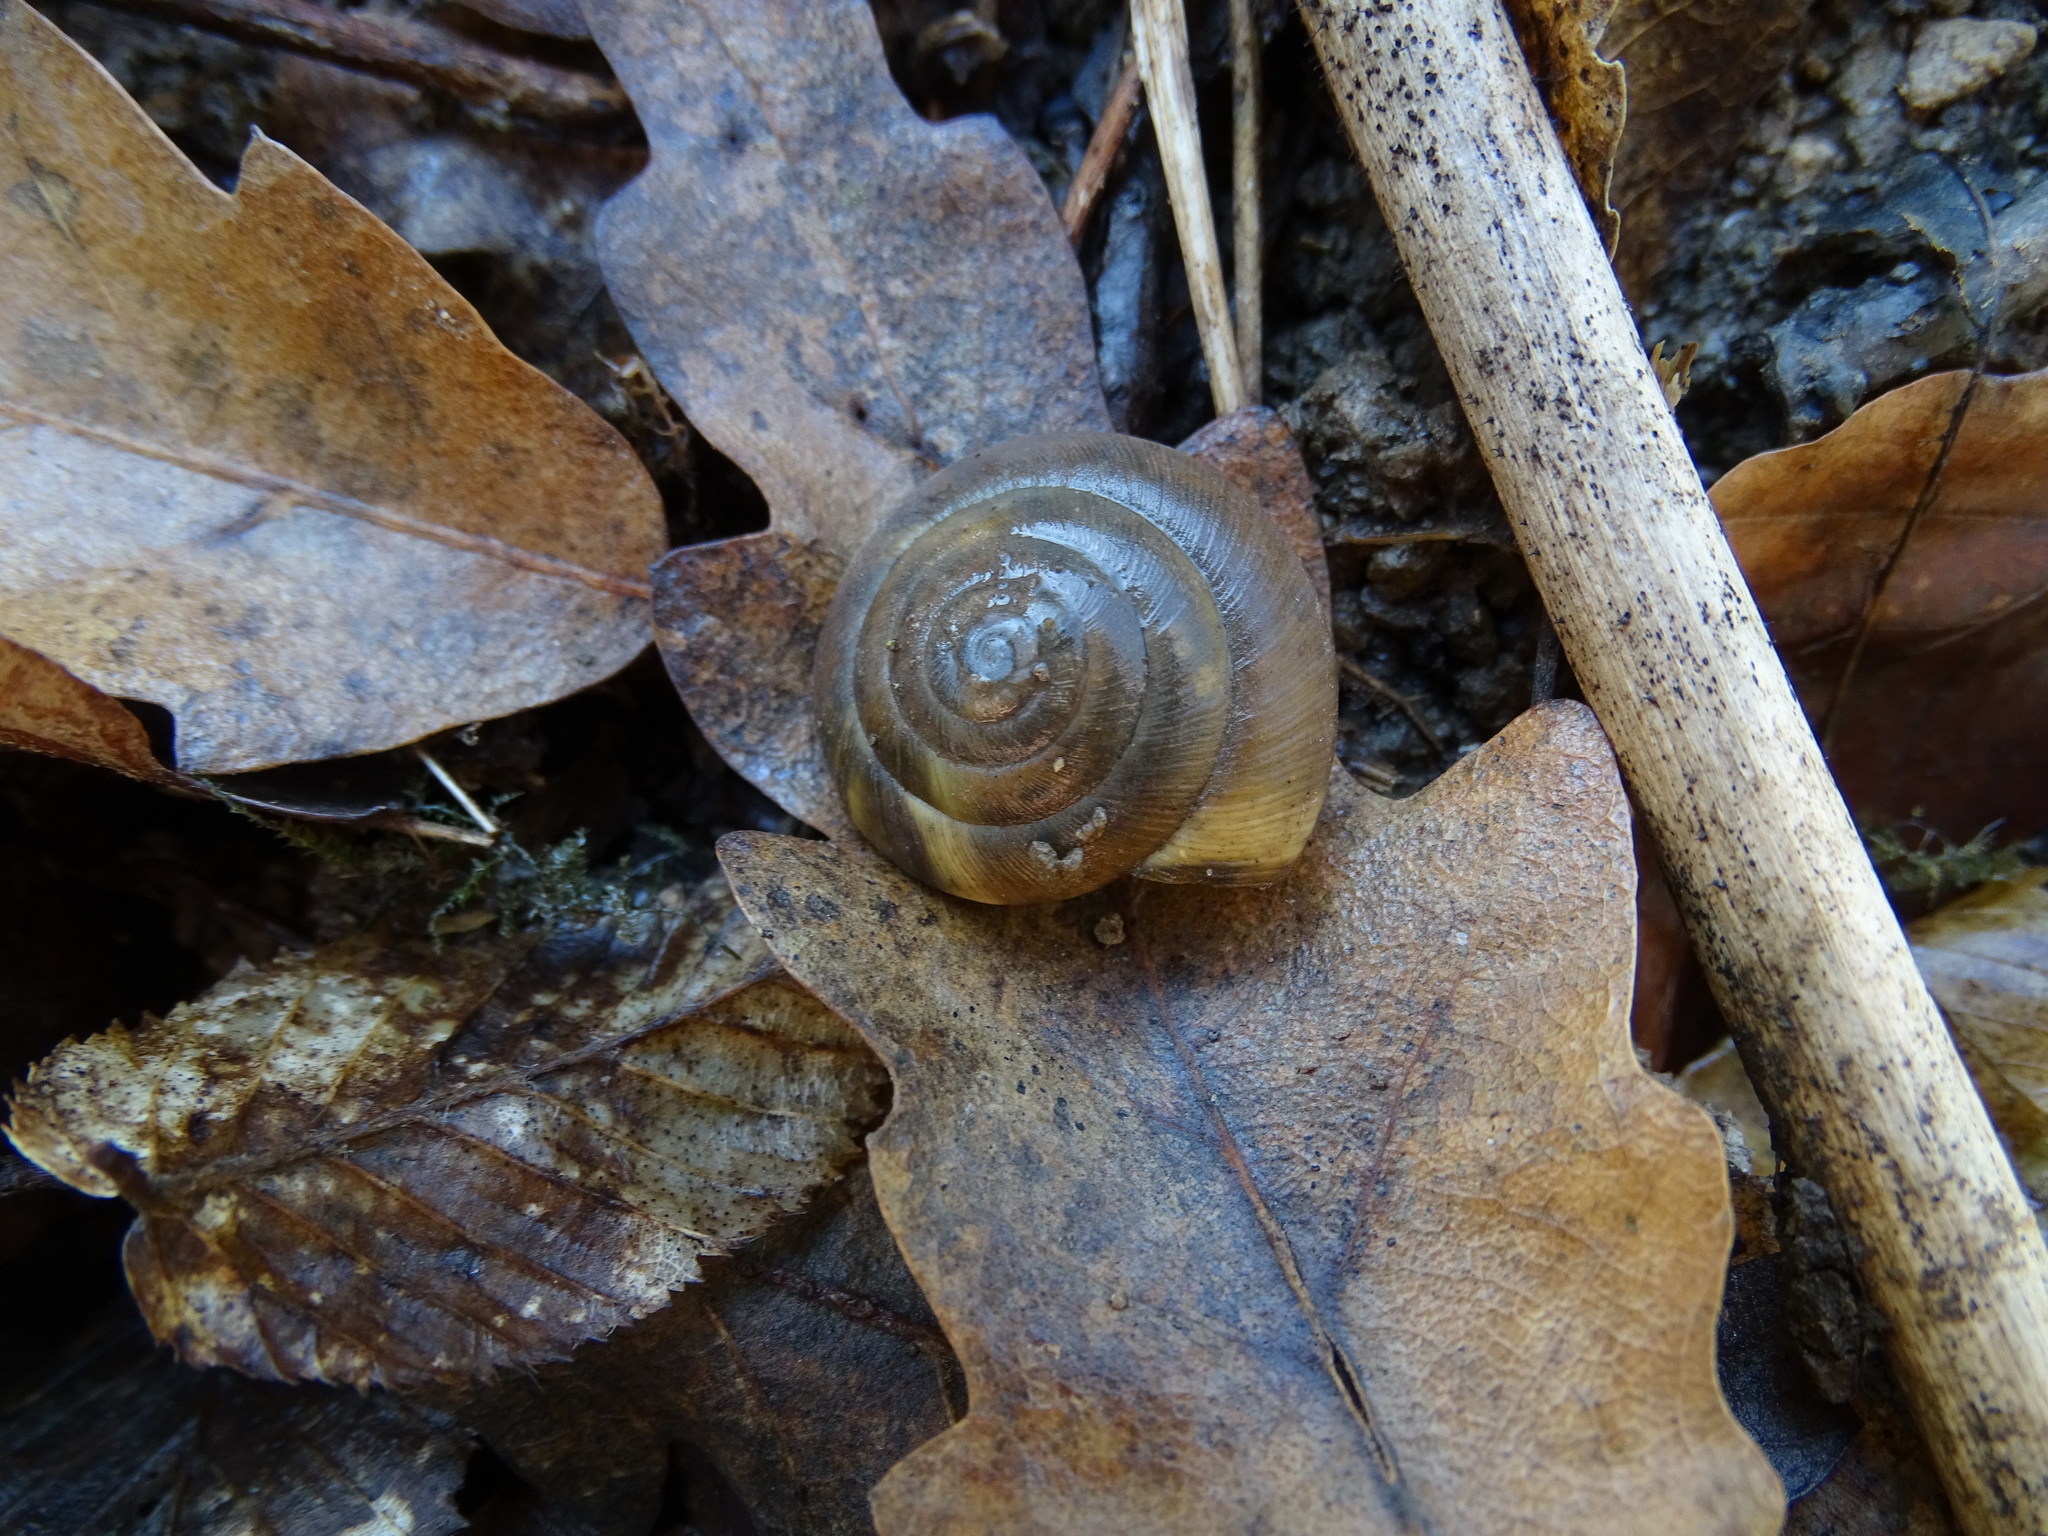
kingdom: Animalia
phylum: Mollusca
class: Gastropoda
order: Stylommatophora
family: Zonitidae
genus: Aegopis
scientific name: Aegopis verticillus
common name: Giant glass snail
